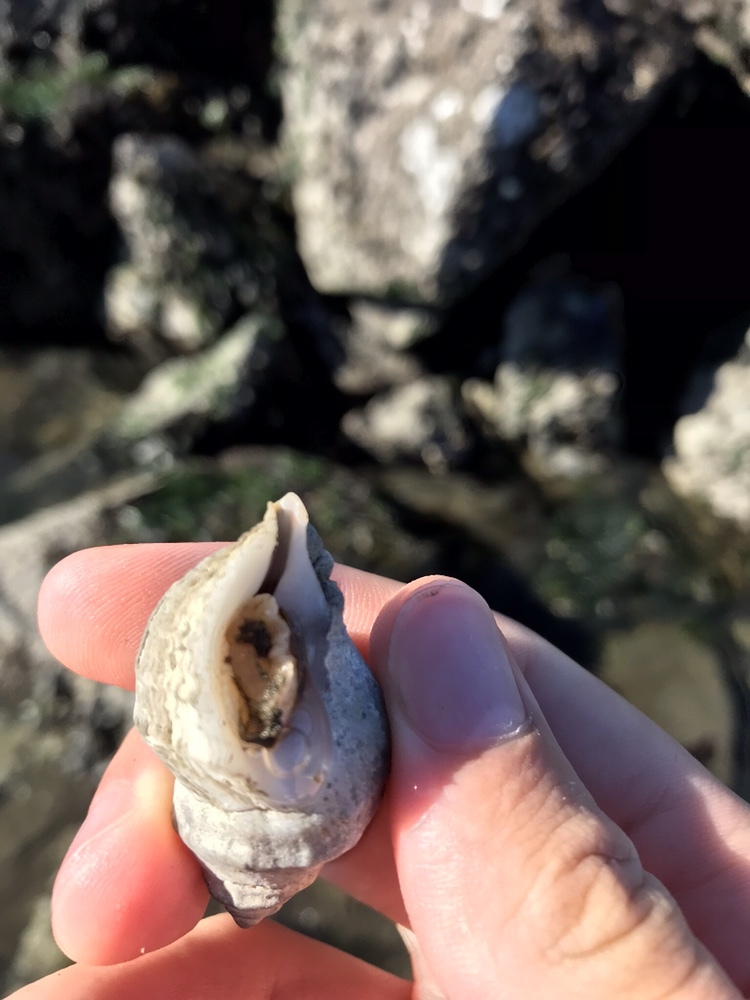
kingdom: Animalia
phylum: Mollusca
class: Gastropoda
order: Neogastropoda
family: Muricidae
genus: Nucella
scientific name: Nucella lamellosa
